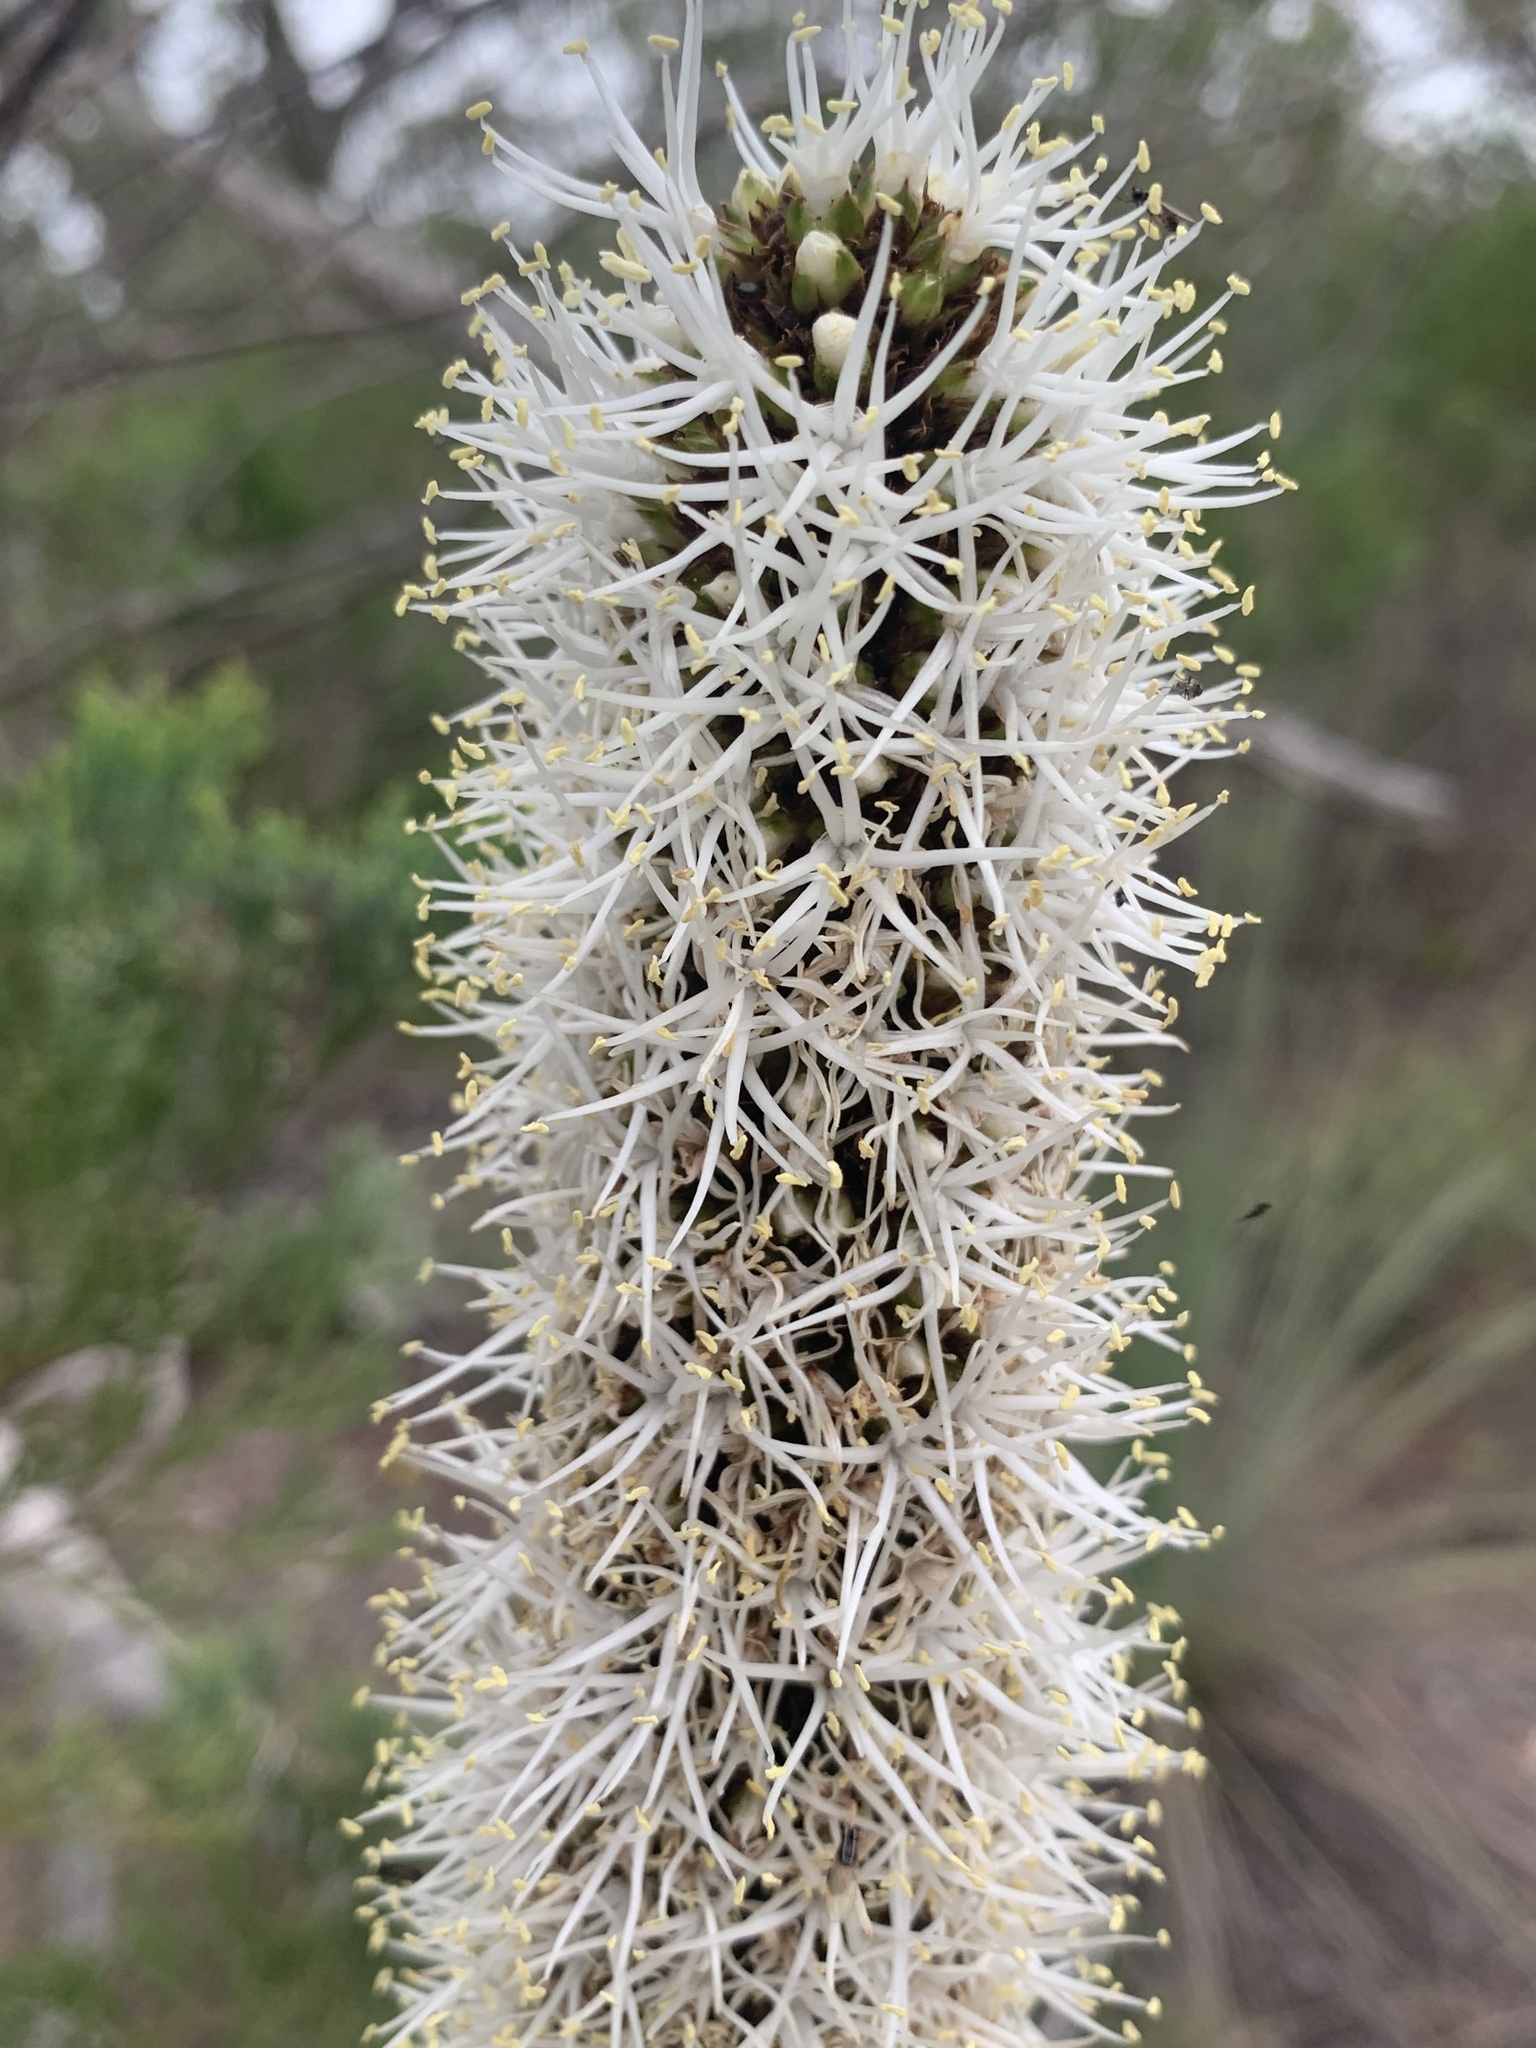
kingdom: Plantae
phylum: Tracheophyta
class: Liliopsida
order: Asparagales
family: Asphodelaceae
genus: Xanthorrhoea
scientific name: Xanthorrhoea australis
